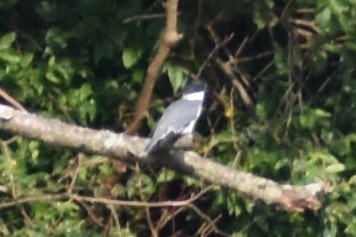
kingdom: Animalia
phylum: Chordata
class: Aves
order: Coraciiformes
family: Alcedinidae
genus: Megaceryle
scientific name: Megaceryle alcyon
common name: Belted kingfisher
